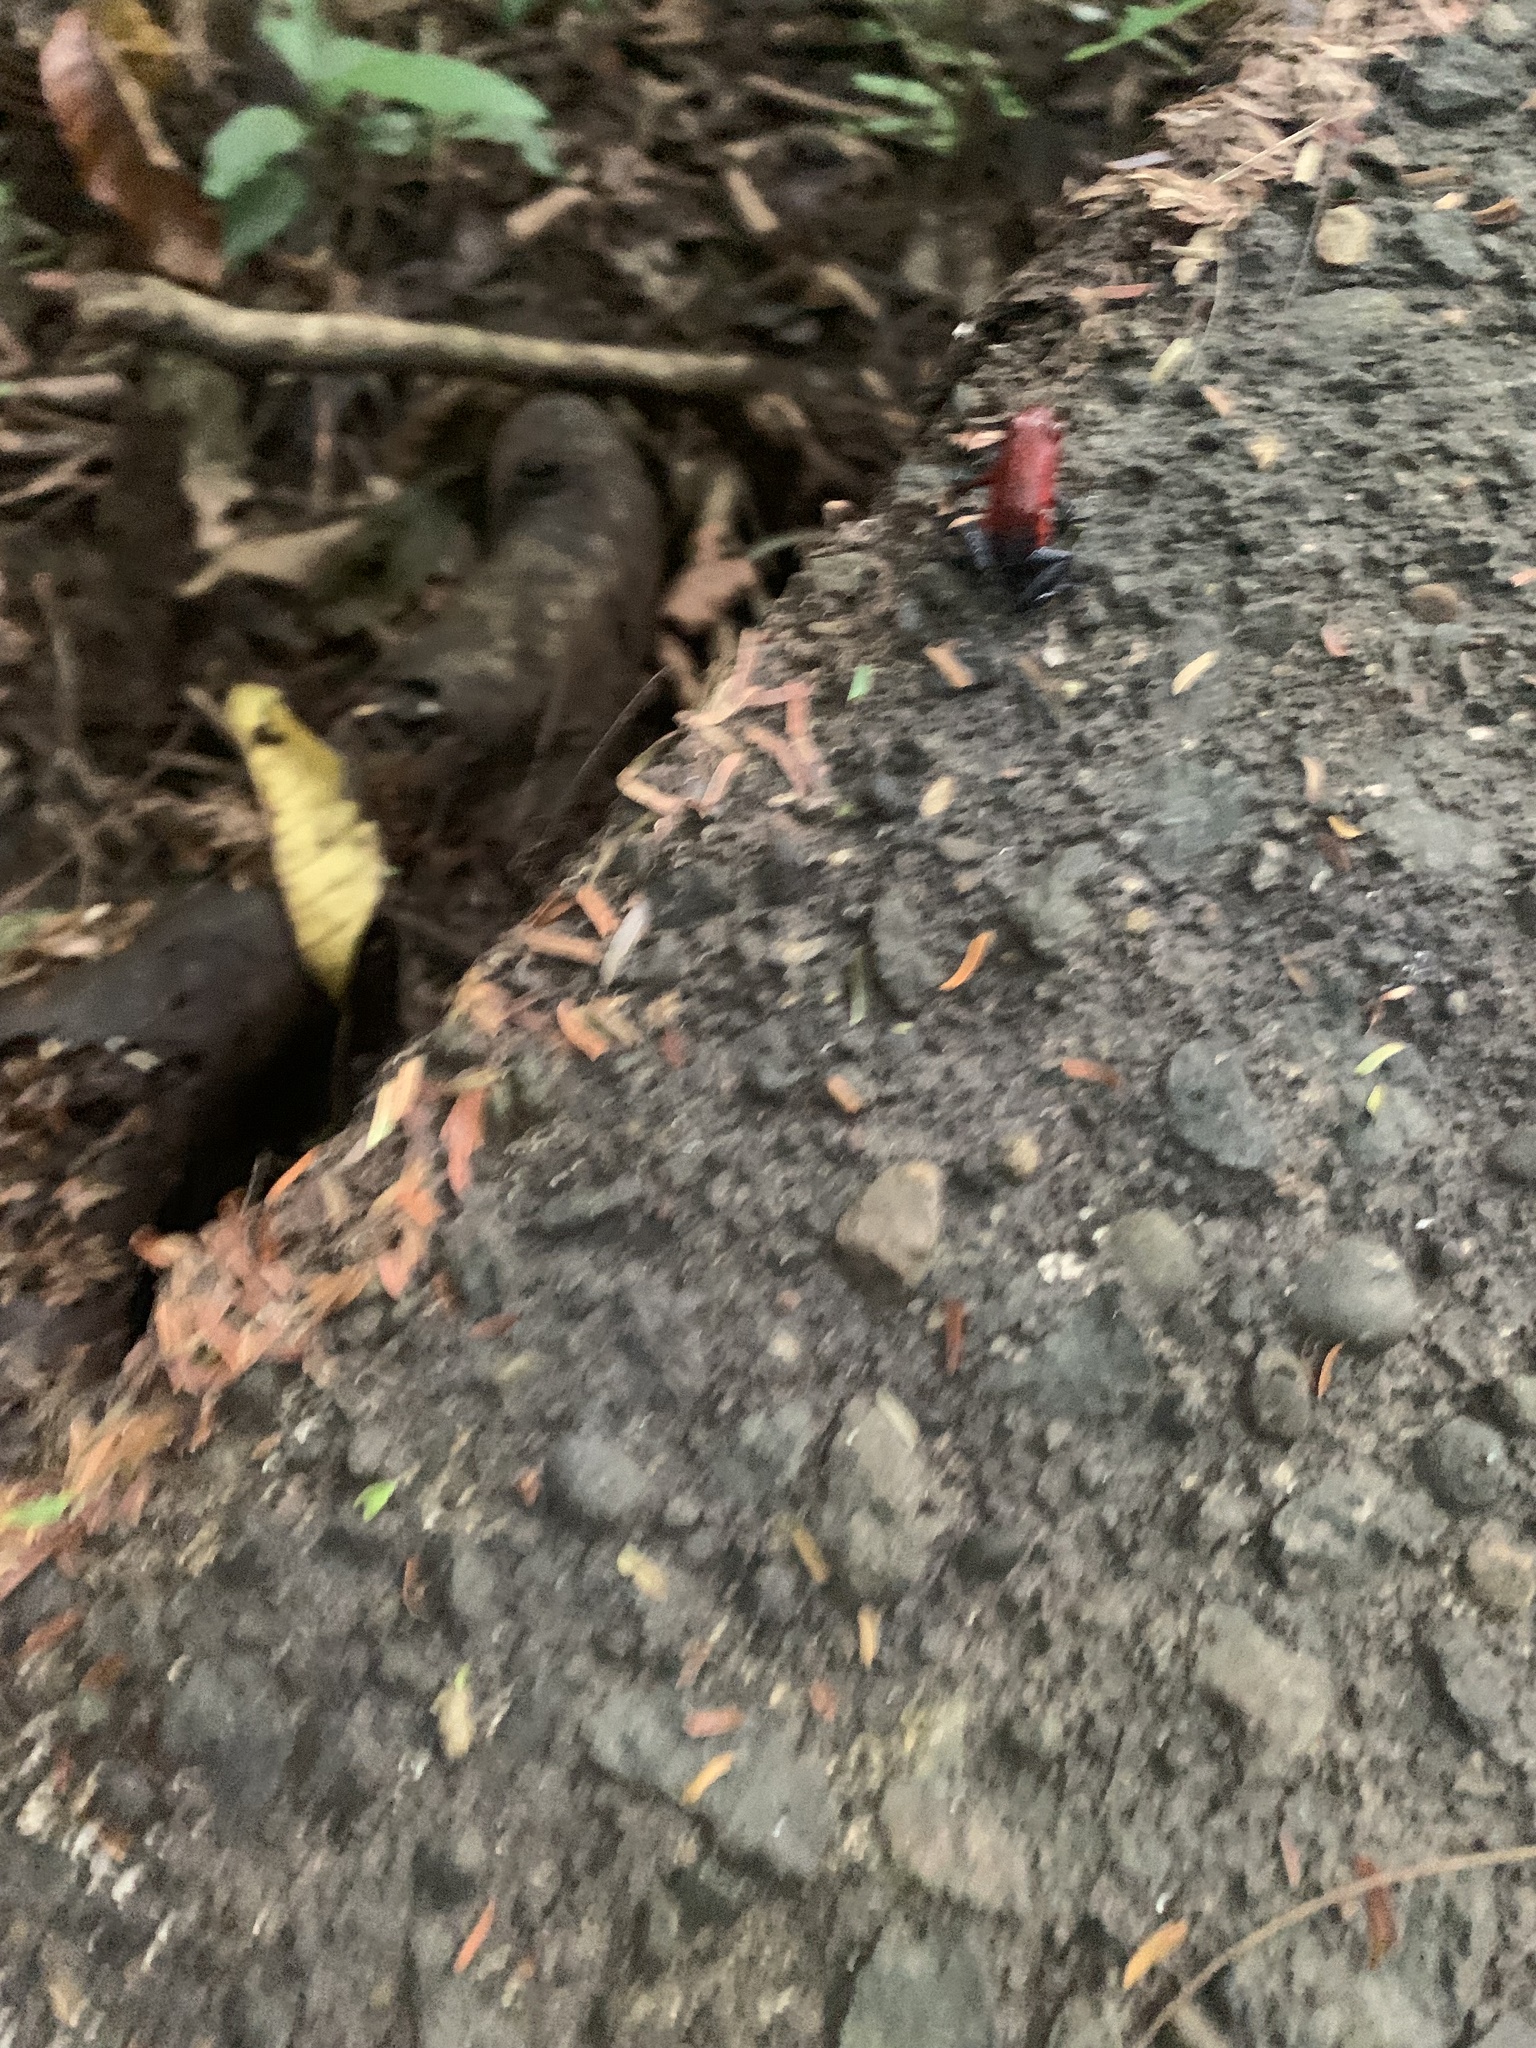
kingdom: Animalia
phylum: Chordata
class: Amphibia
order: Anura
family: Dendrobatidae
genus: Oophaga
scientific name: Oophaga pumilio
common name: Flaming poison frog
